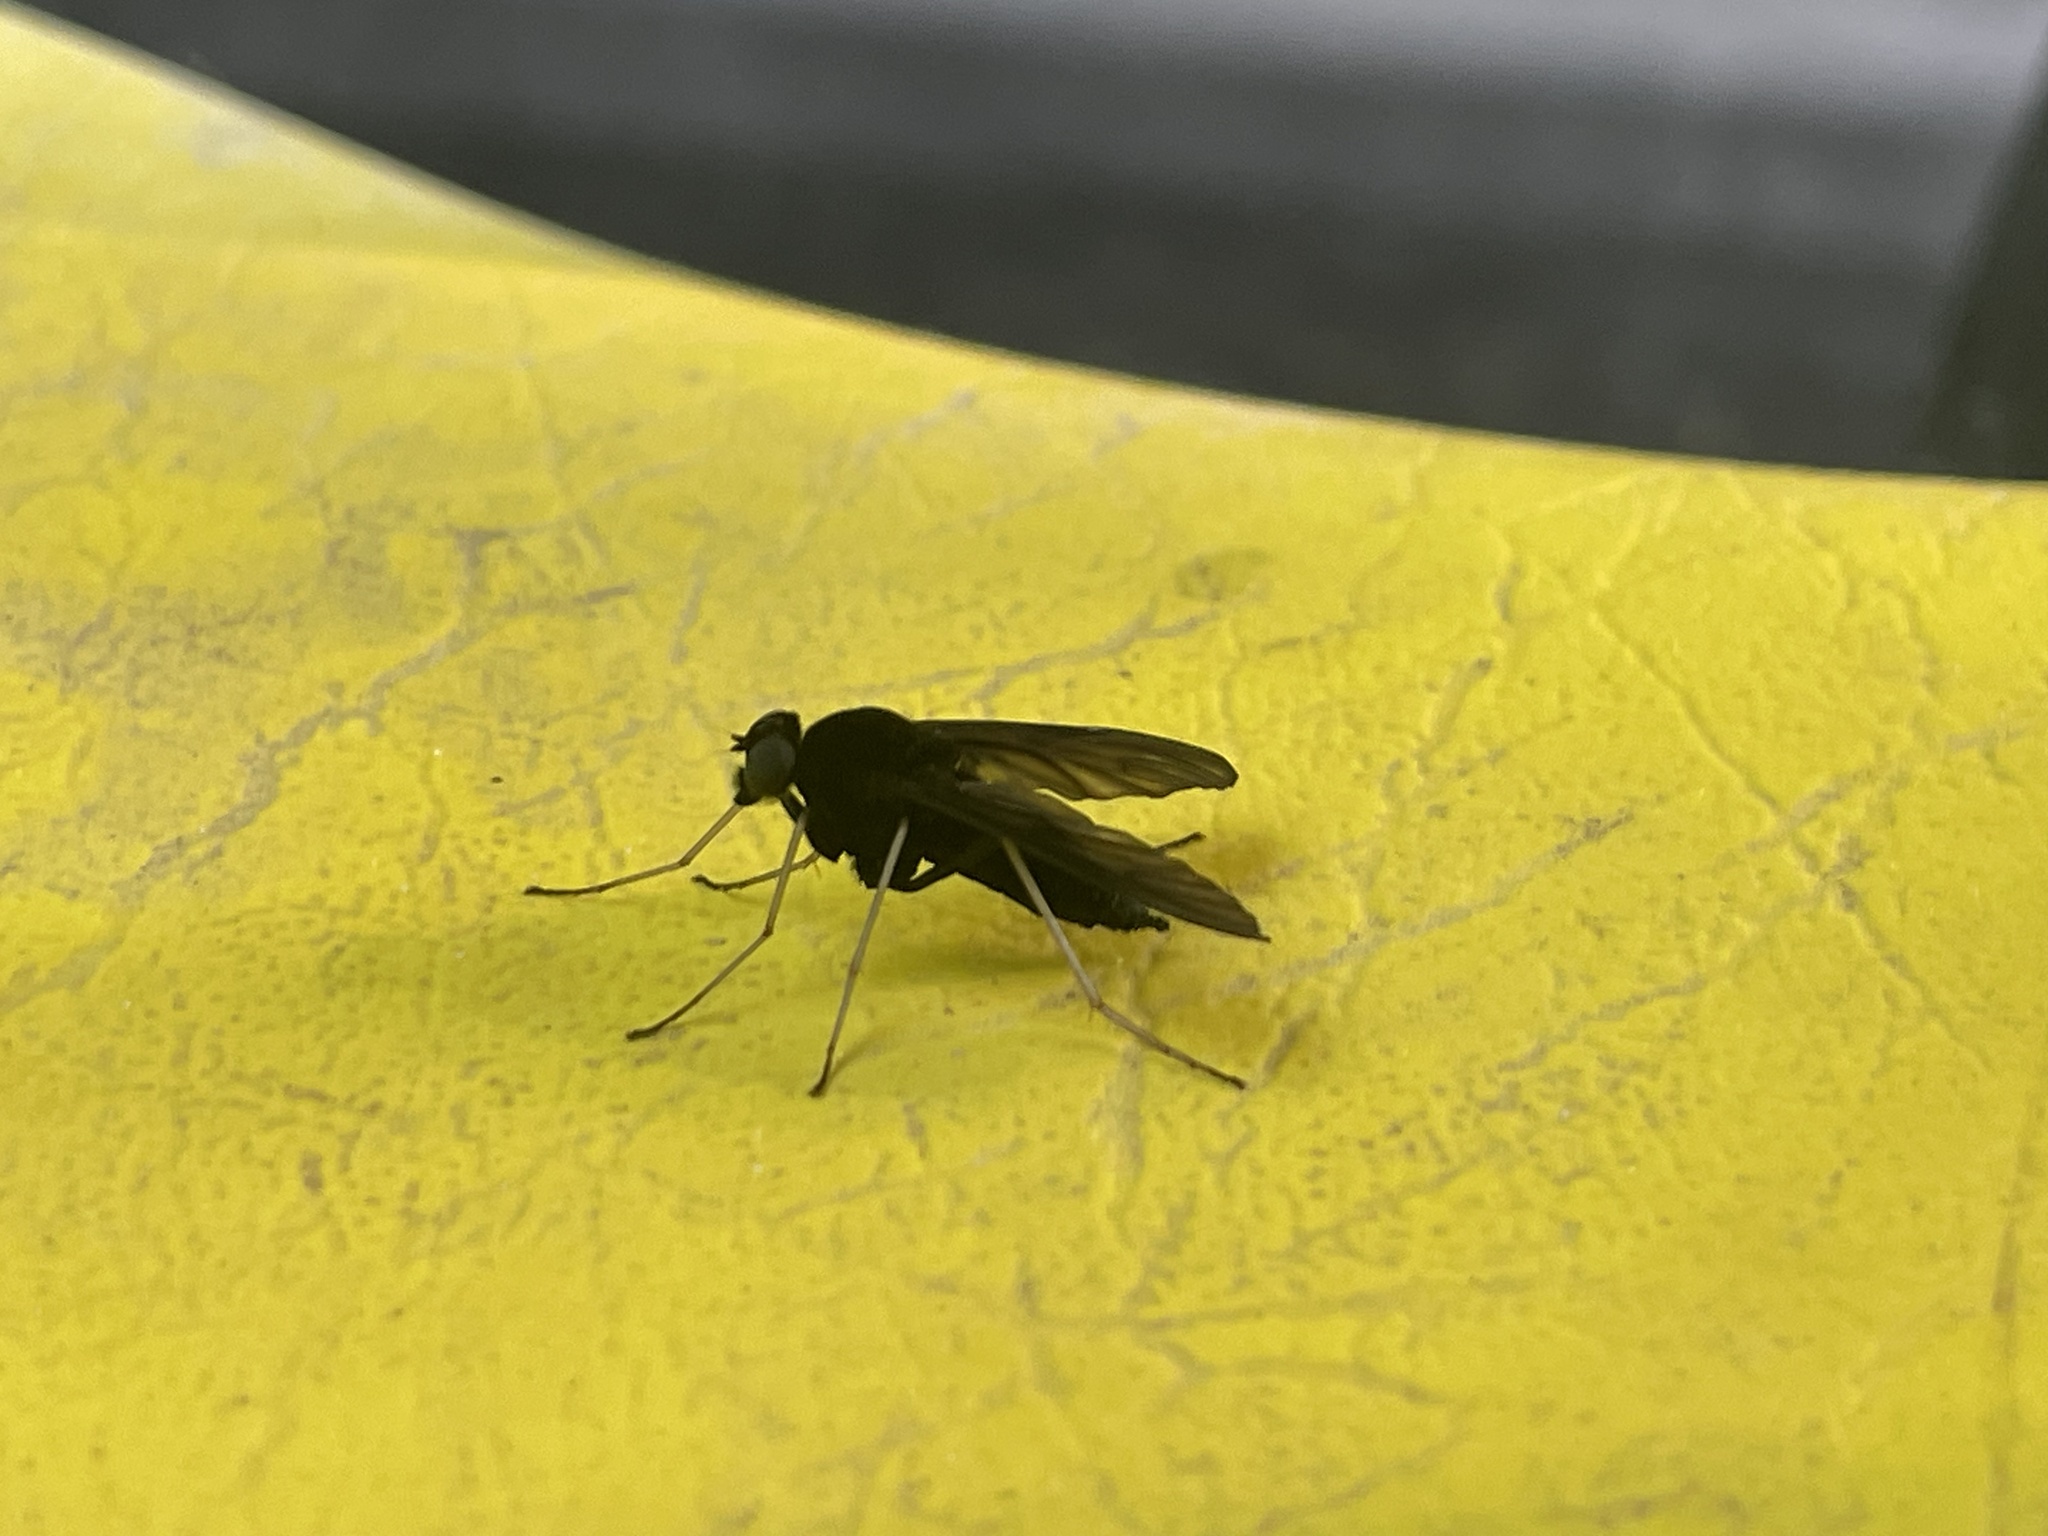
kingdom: Animalia
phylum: Arthropoda
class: Insecta
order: Diptera
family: Rhagionidae
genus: Chrysopilus
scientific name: Chrysopilus velutinus
